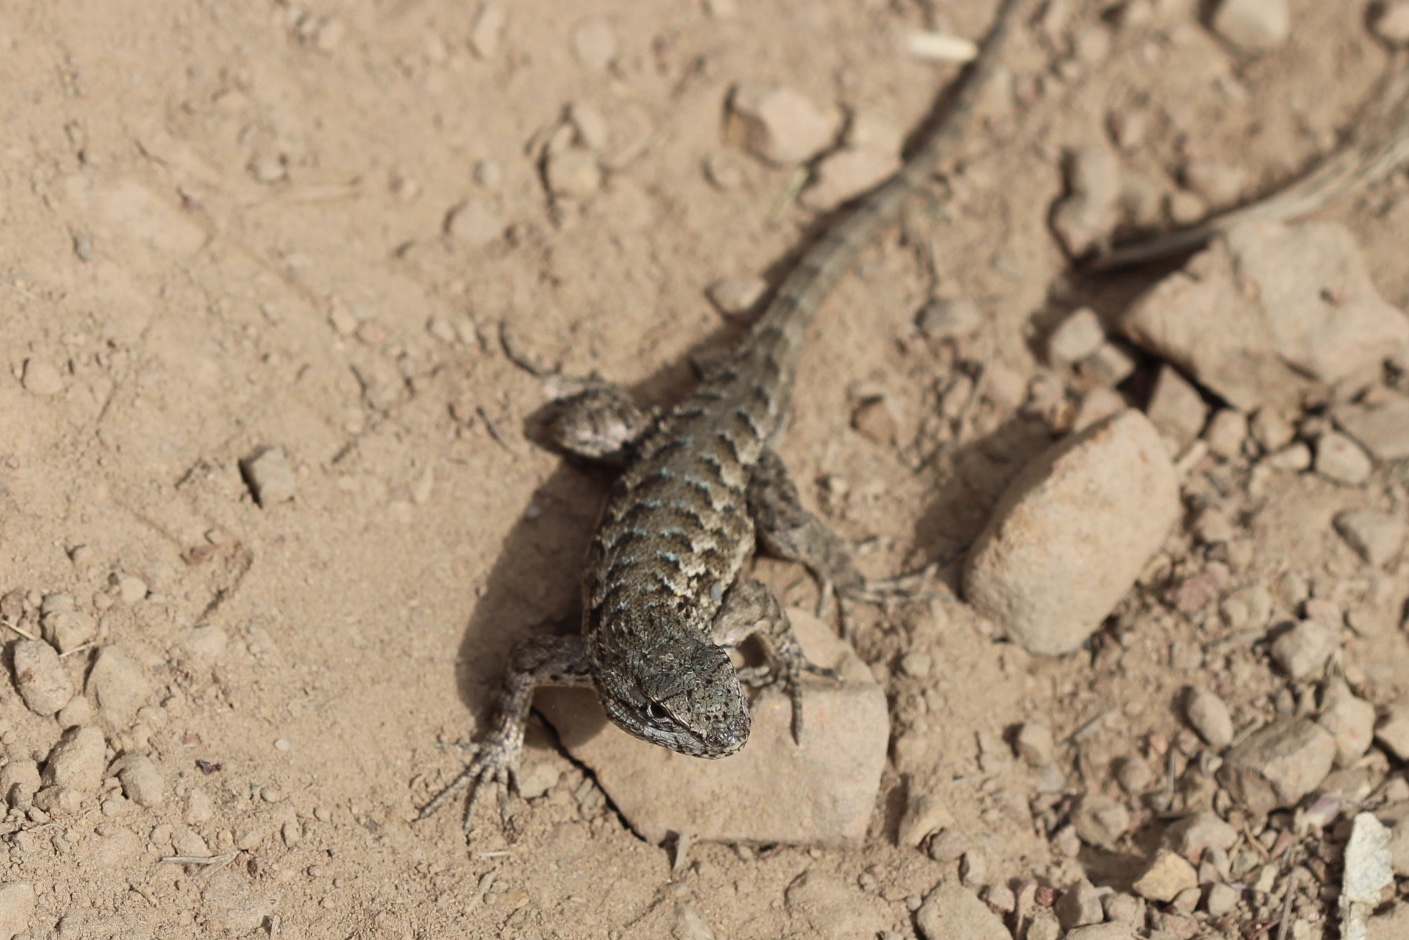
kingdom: Animalia
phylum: Chordata
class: Squamata
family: Phrynosomatidae
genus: Sceloporus
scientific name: Sceloporus occidentalis
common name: Western fence lizard
